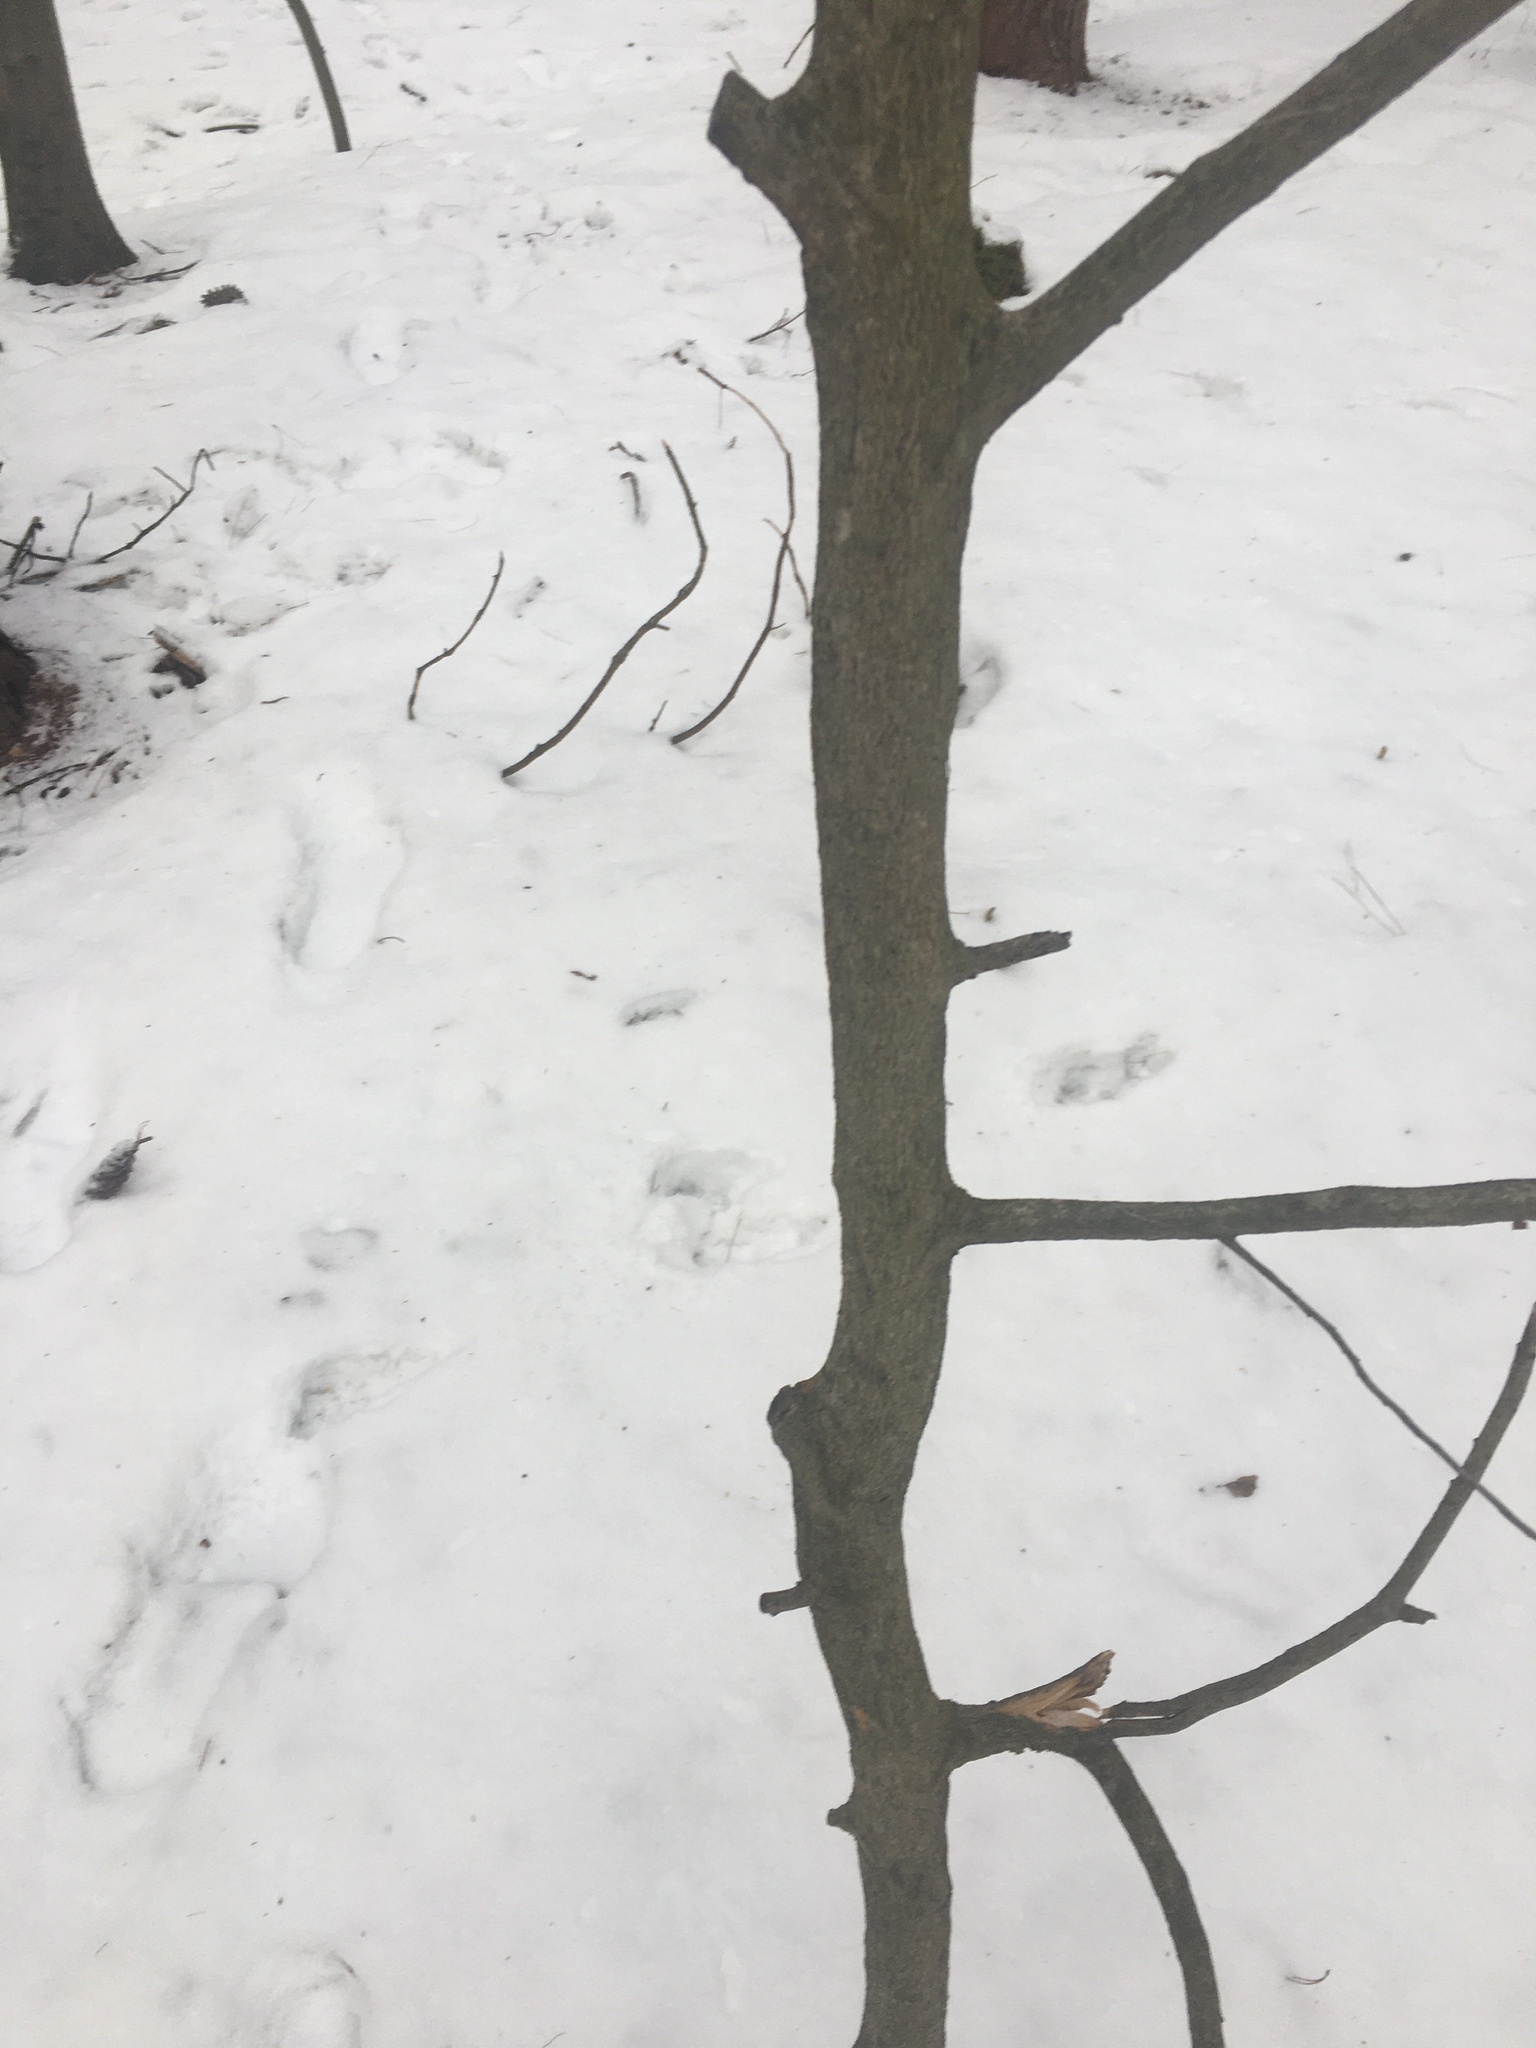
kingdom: Plantae
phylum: Tracheophyta
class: Magnoliopsida
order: Fagales
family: Fagaceae
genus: Fagus
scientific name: Fagus grandifolia
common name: American beech
